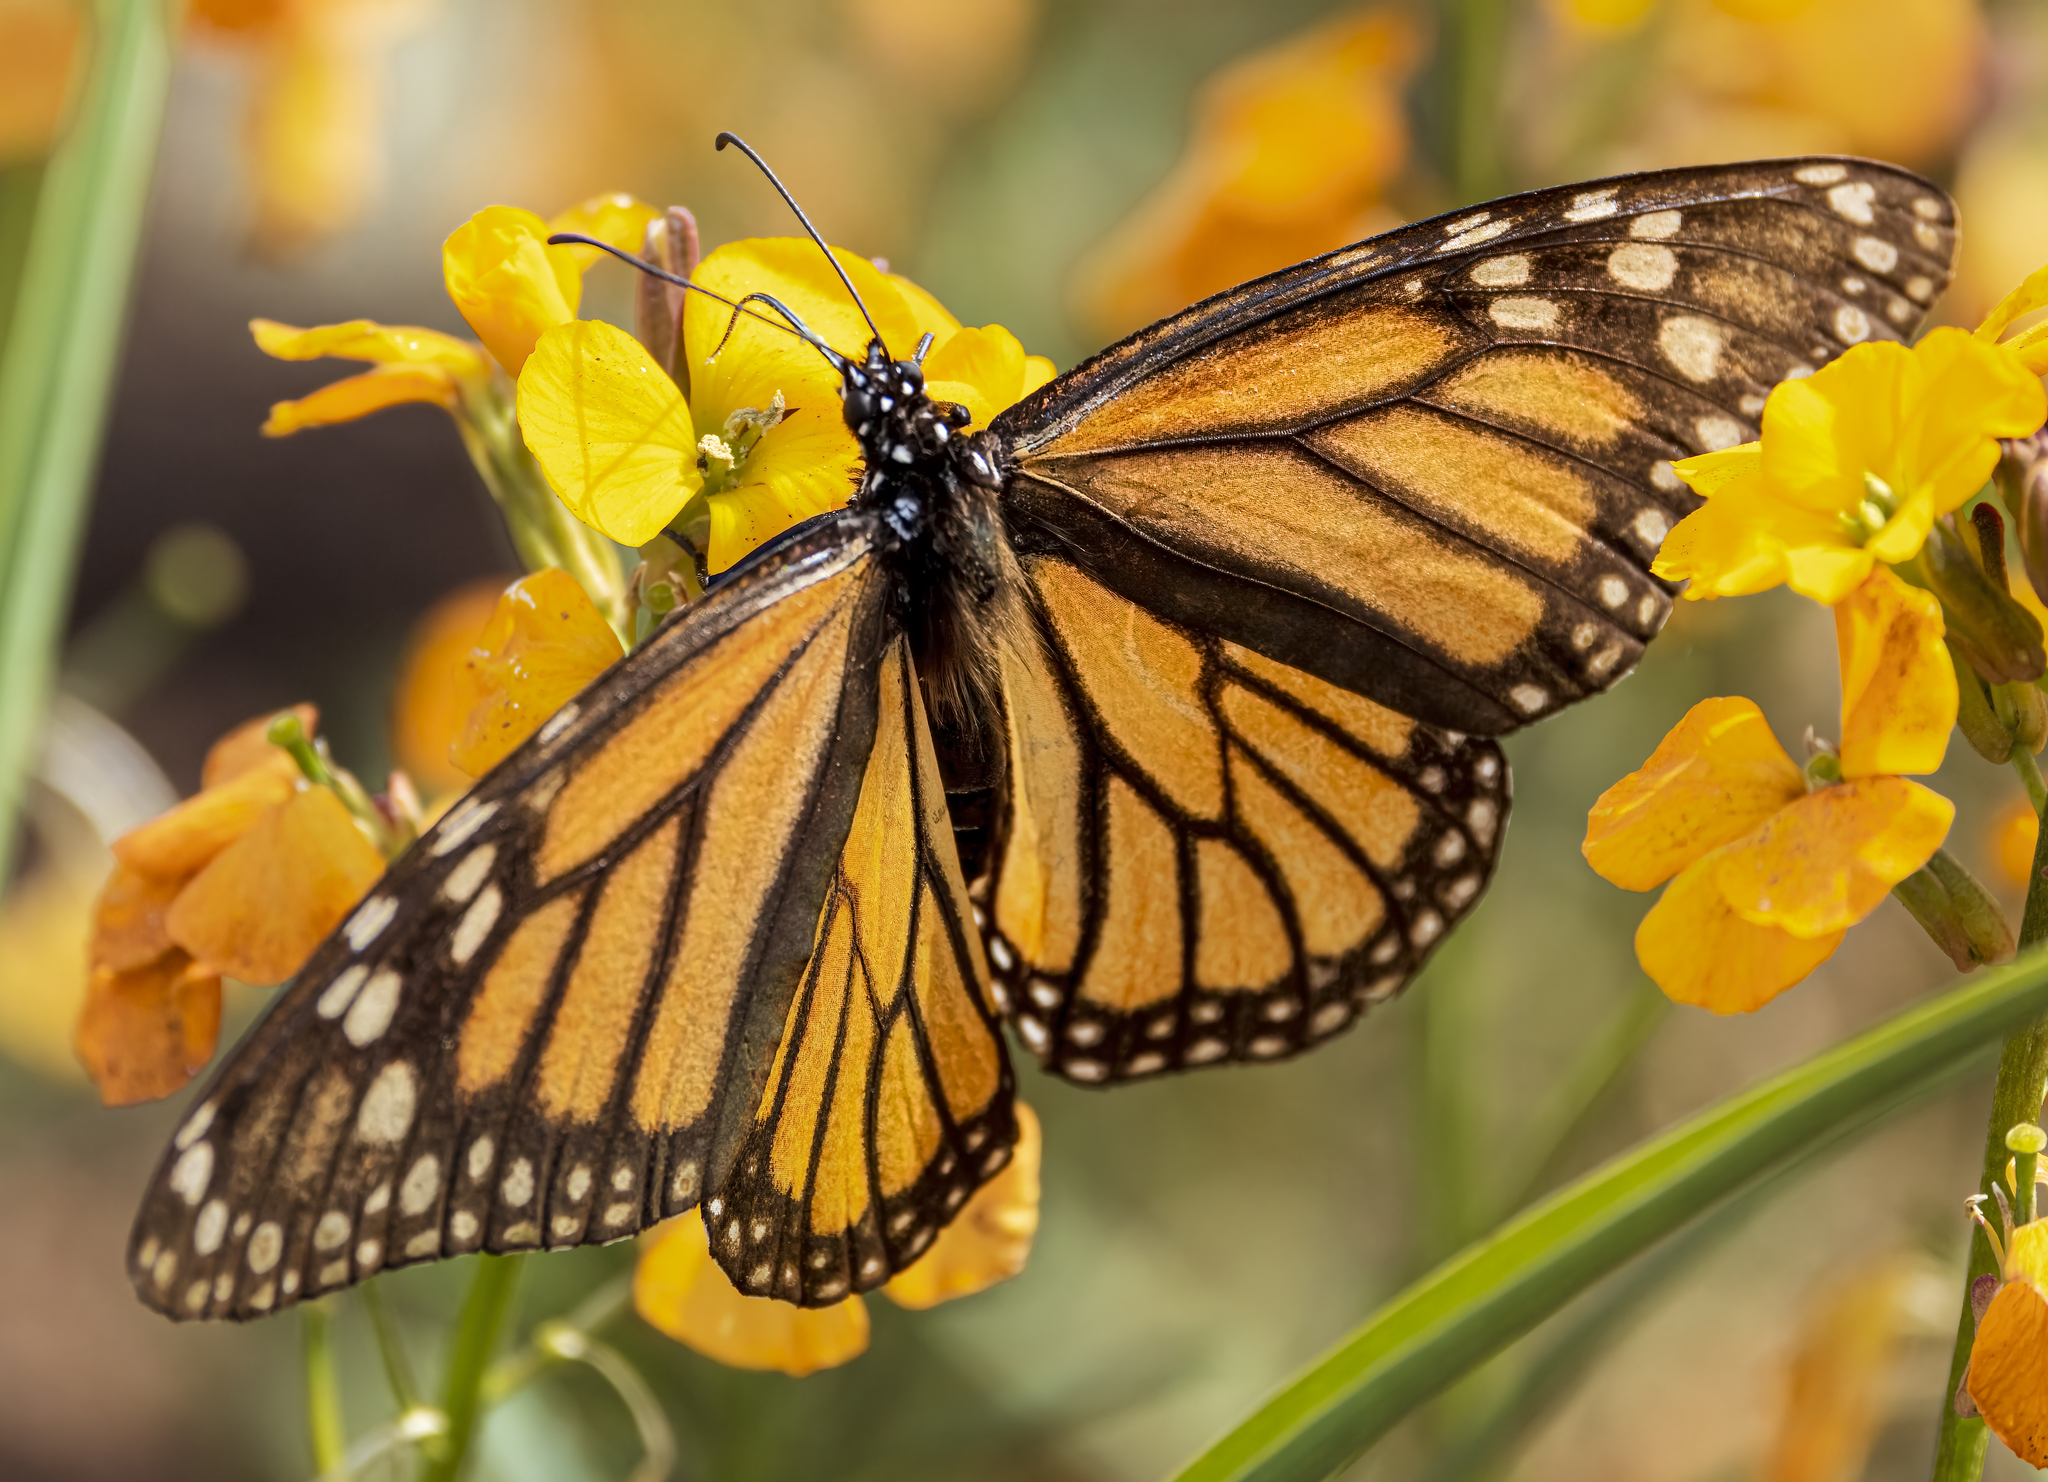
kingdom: Animalia
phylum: Arthropoda
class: Insecta
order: Lepidoptera
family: Nymphalidae
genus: Danaus
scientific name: Danaus plexippus
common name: Monarch
